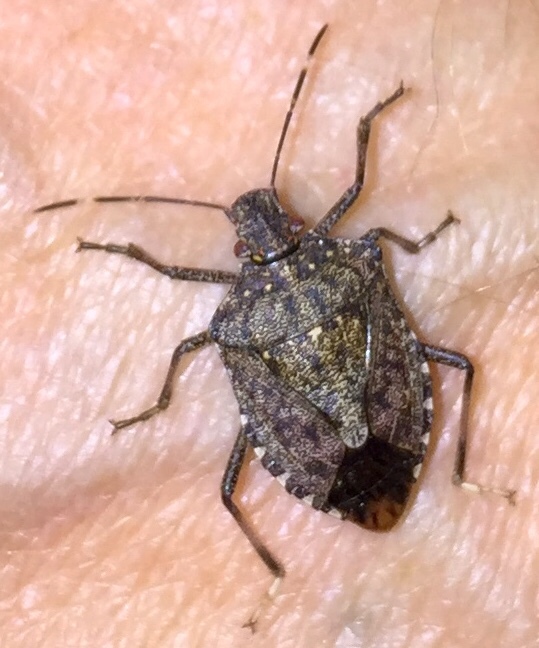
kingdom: Animalia
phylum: Arthropoda
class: Insecta
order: Hemiptera
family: Pentatomidae
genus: Halyomorpha
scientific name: Halyomorpha halys
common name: Brown marmorated stink bug
